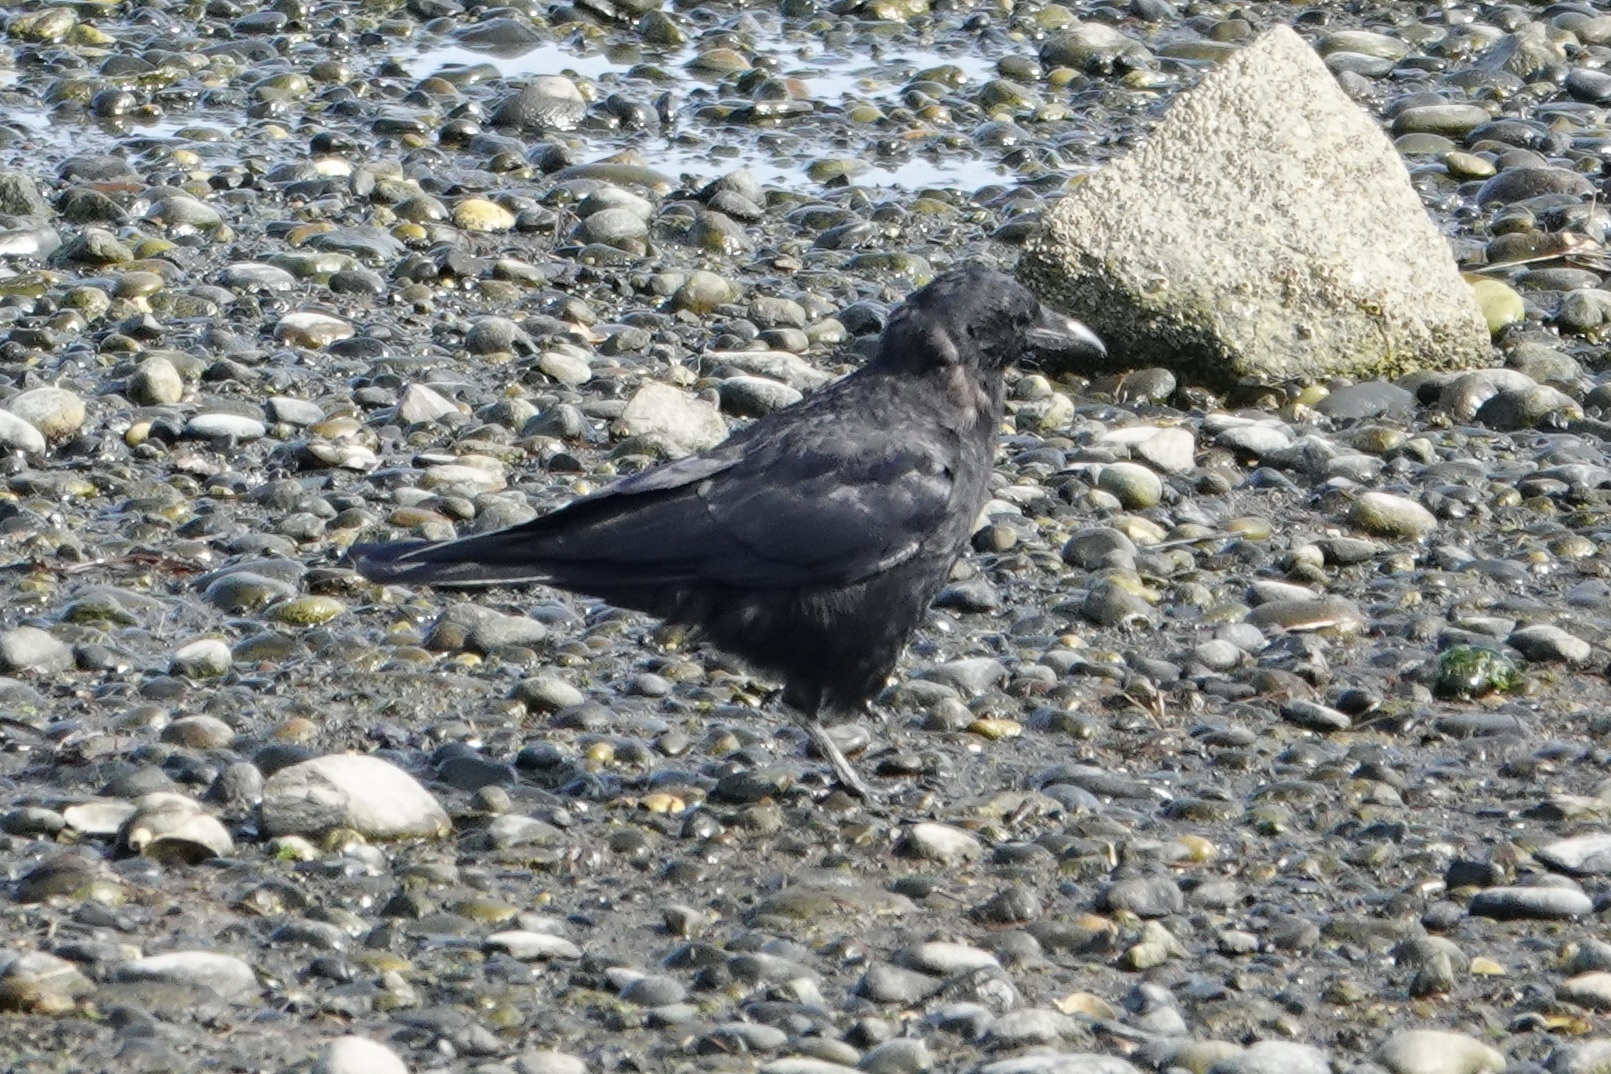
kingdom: Animalia
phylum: Chordata
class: Aves
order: Passeriformes
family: Corvidae
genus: Corvus
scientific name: Corvus brachyrhynchos
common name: American crow
